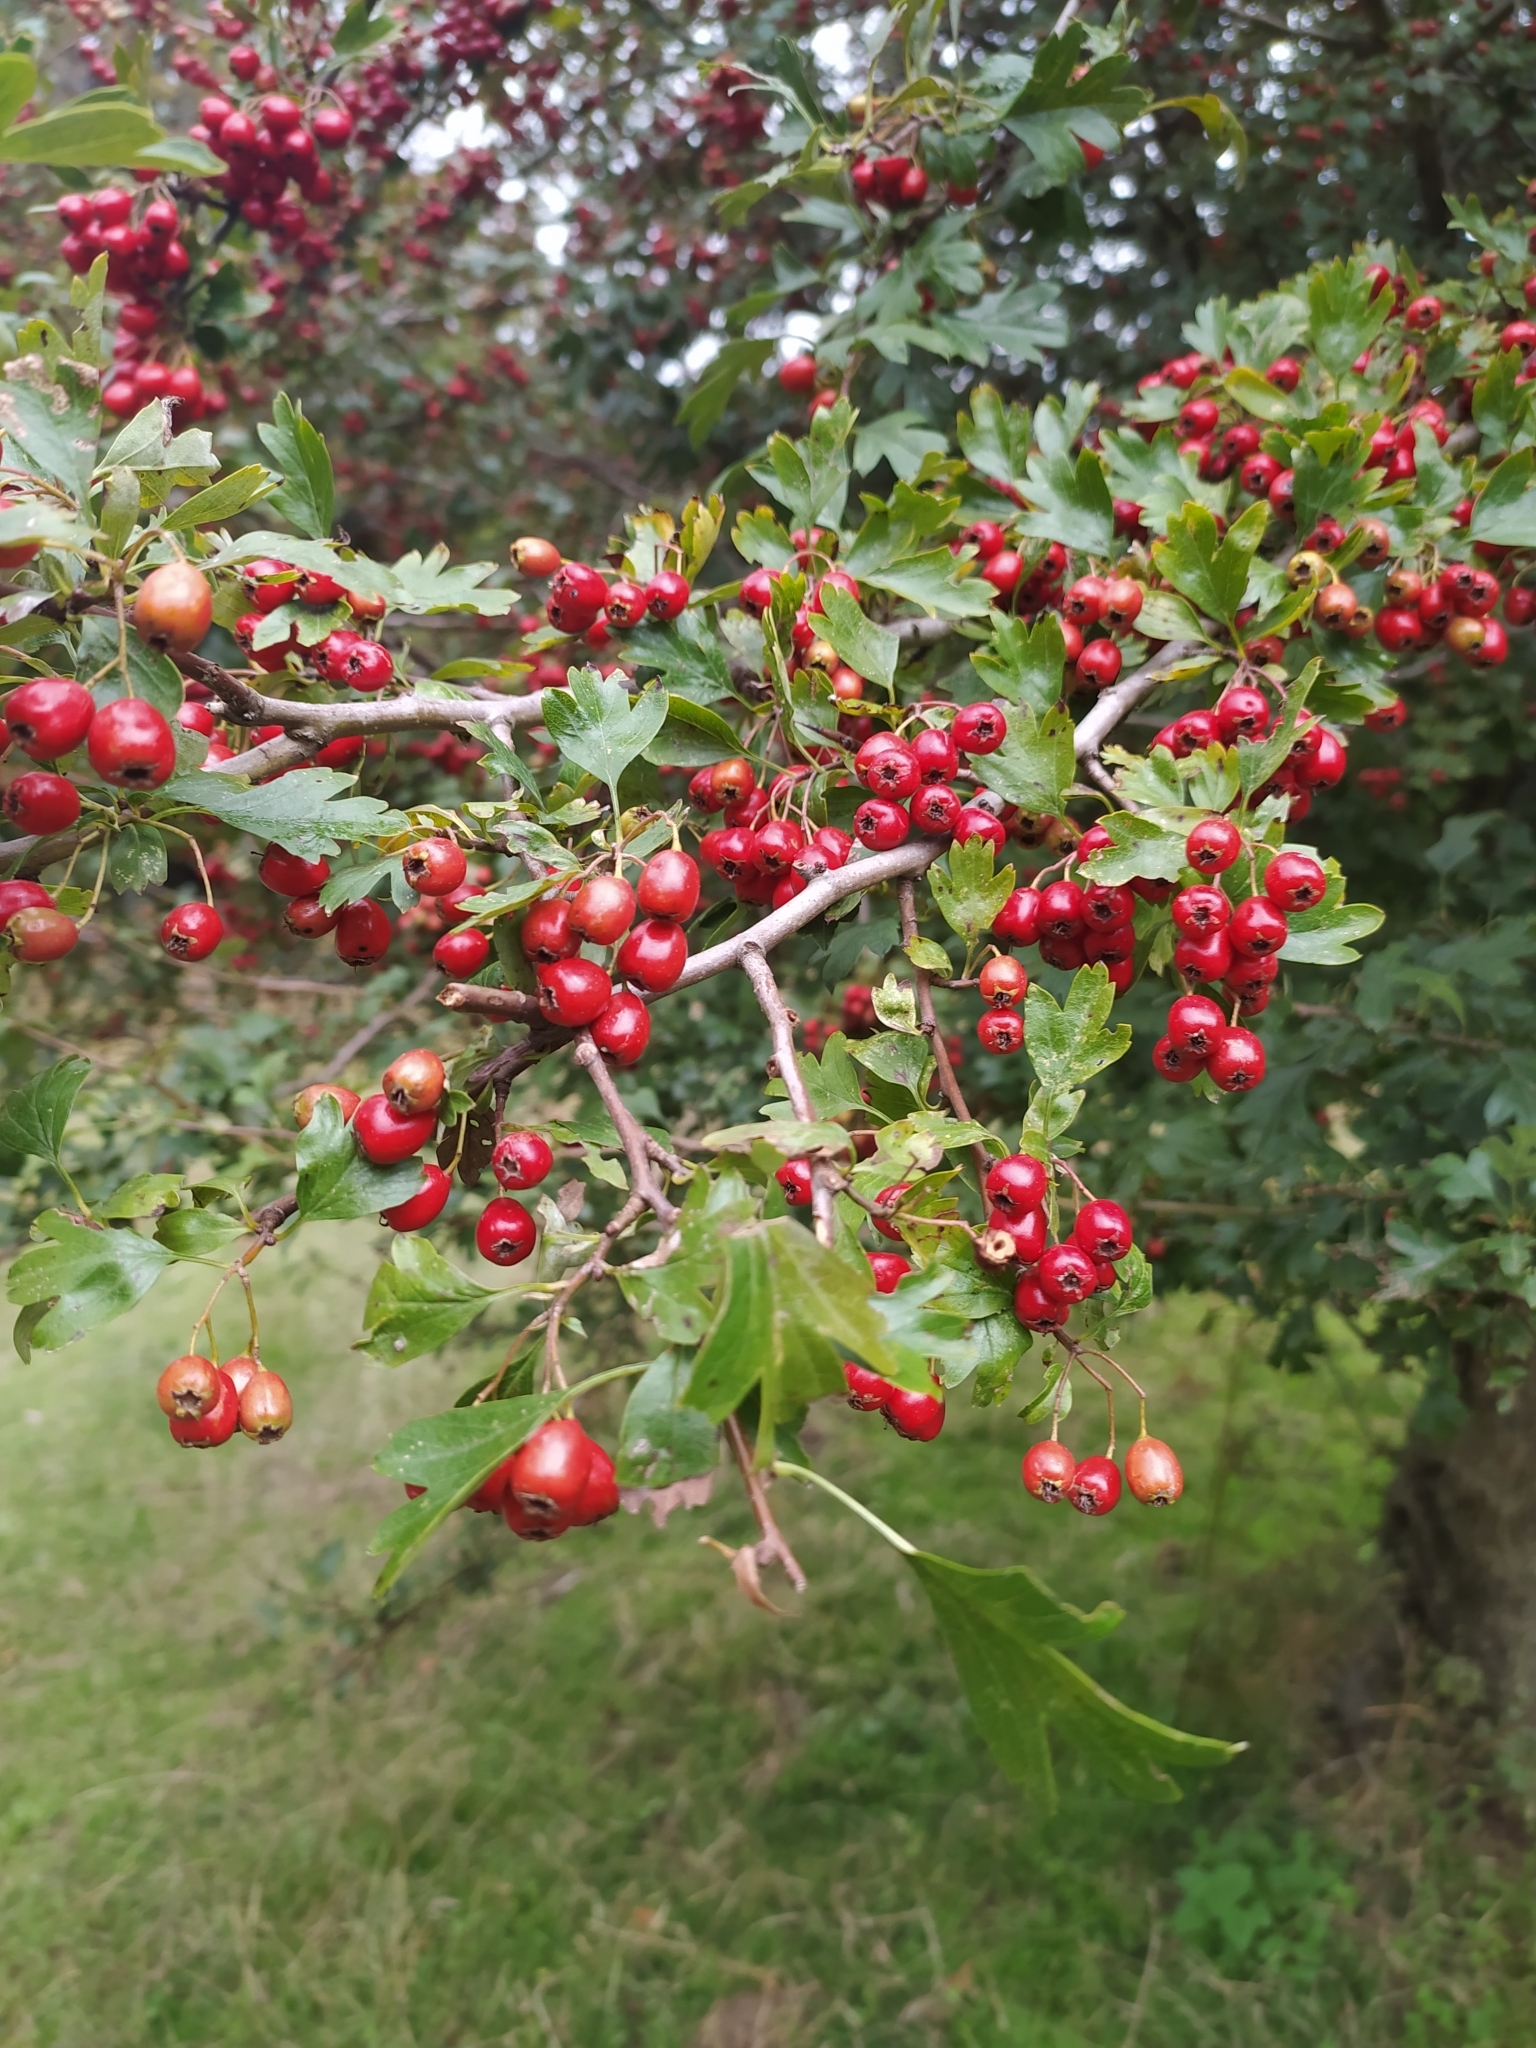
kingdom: Plantae
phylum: Tracheophyta
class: Magnoliopsida
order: Rosales
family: Rosaceae
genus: Crataegus
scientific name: Crataegus monogyna
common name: Hawthorn
